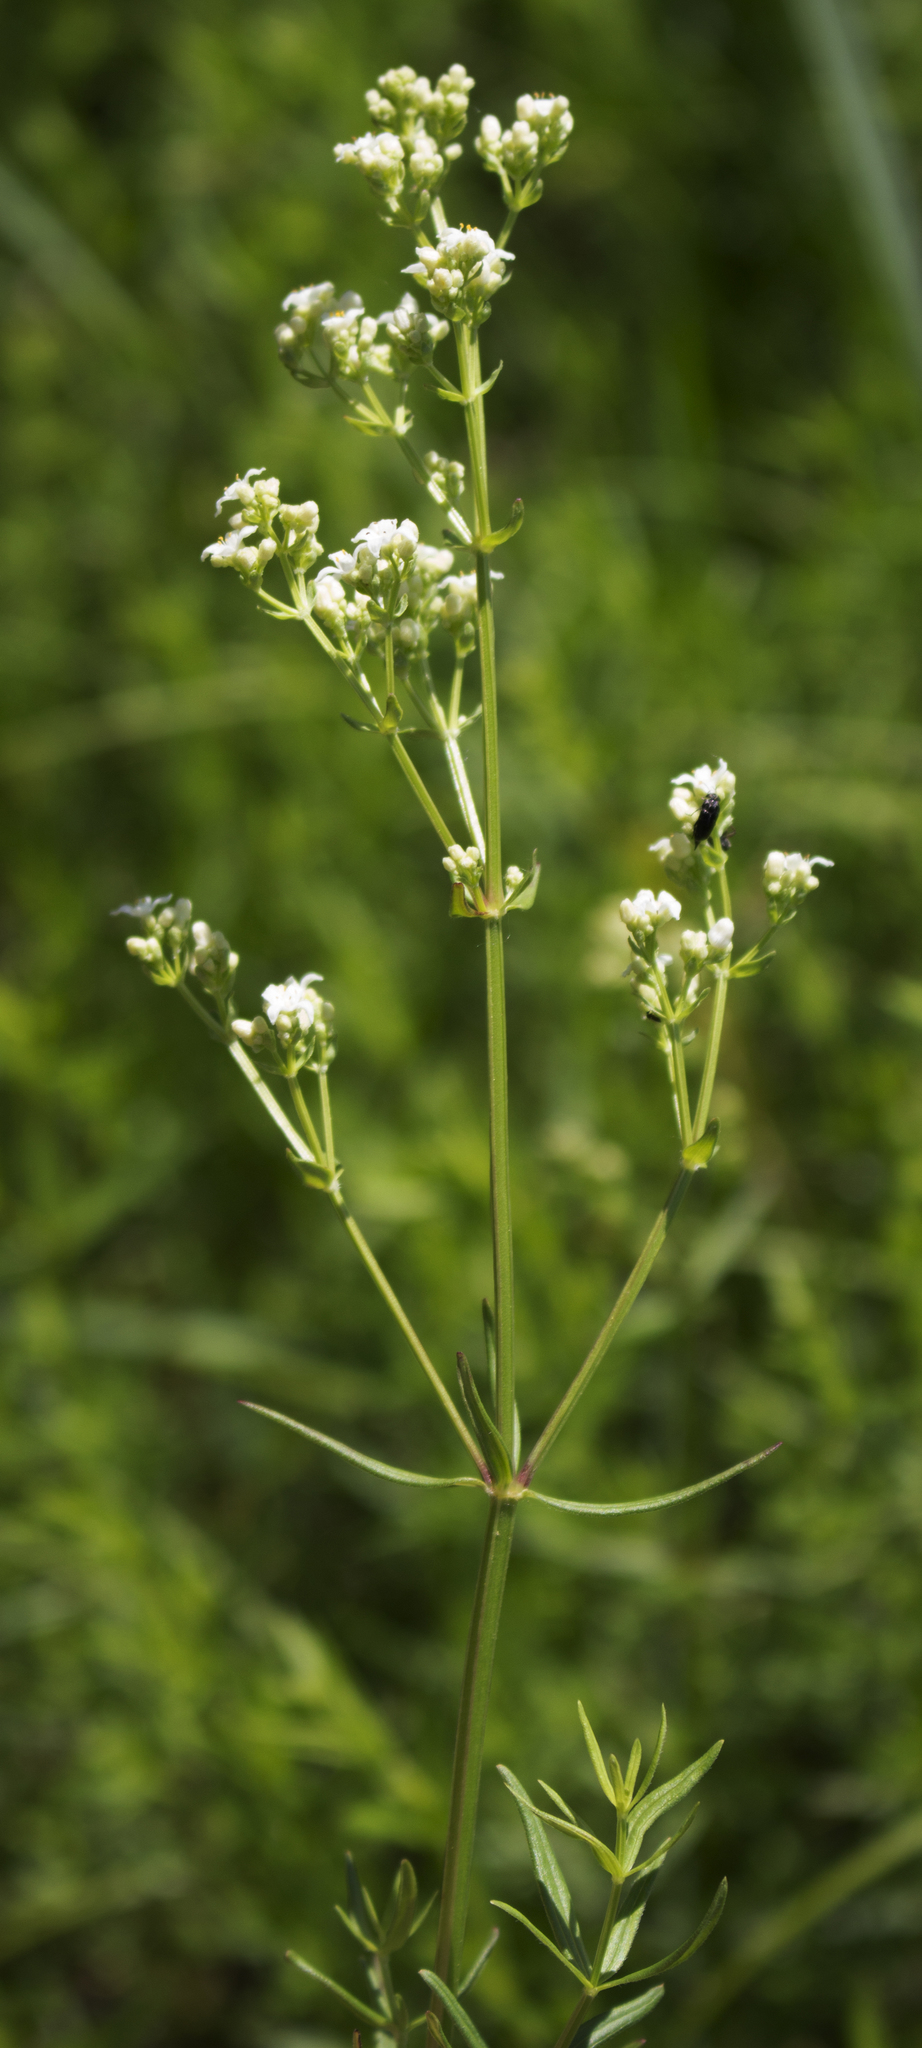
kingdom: Plantae
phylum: Tracheophyta
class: Magnoliopsida
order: Gentianales
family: Rubiaceae
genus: Galium
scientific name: Galium boreale
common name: Northern bedstraw
